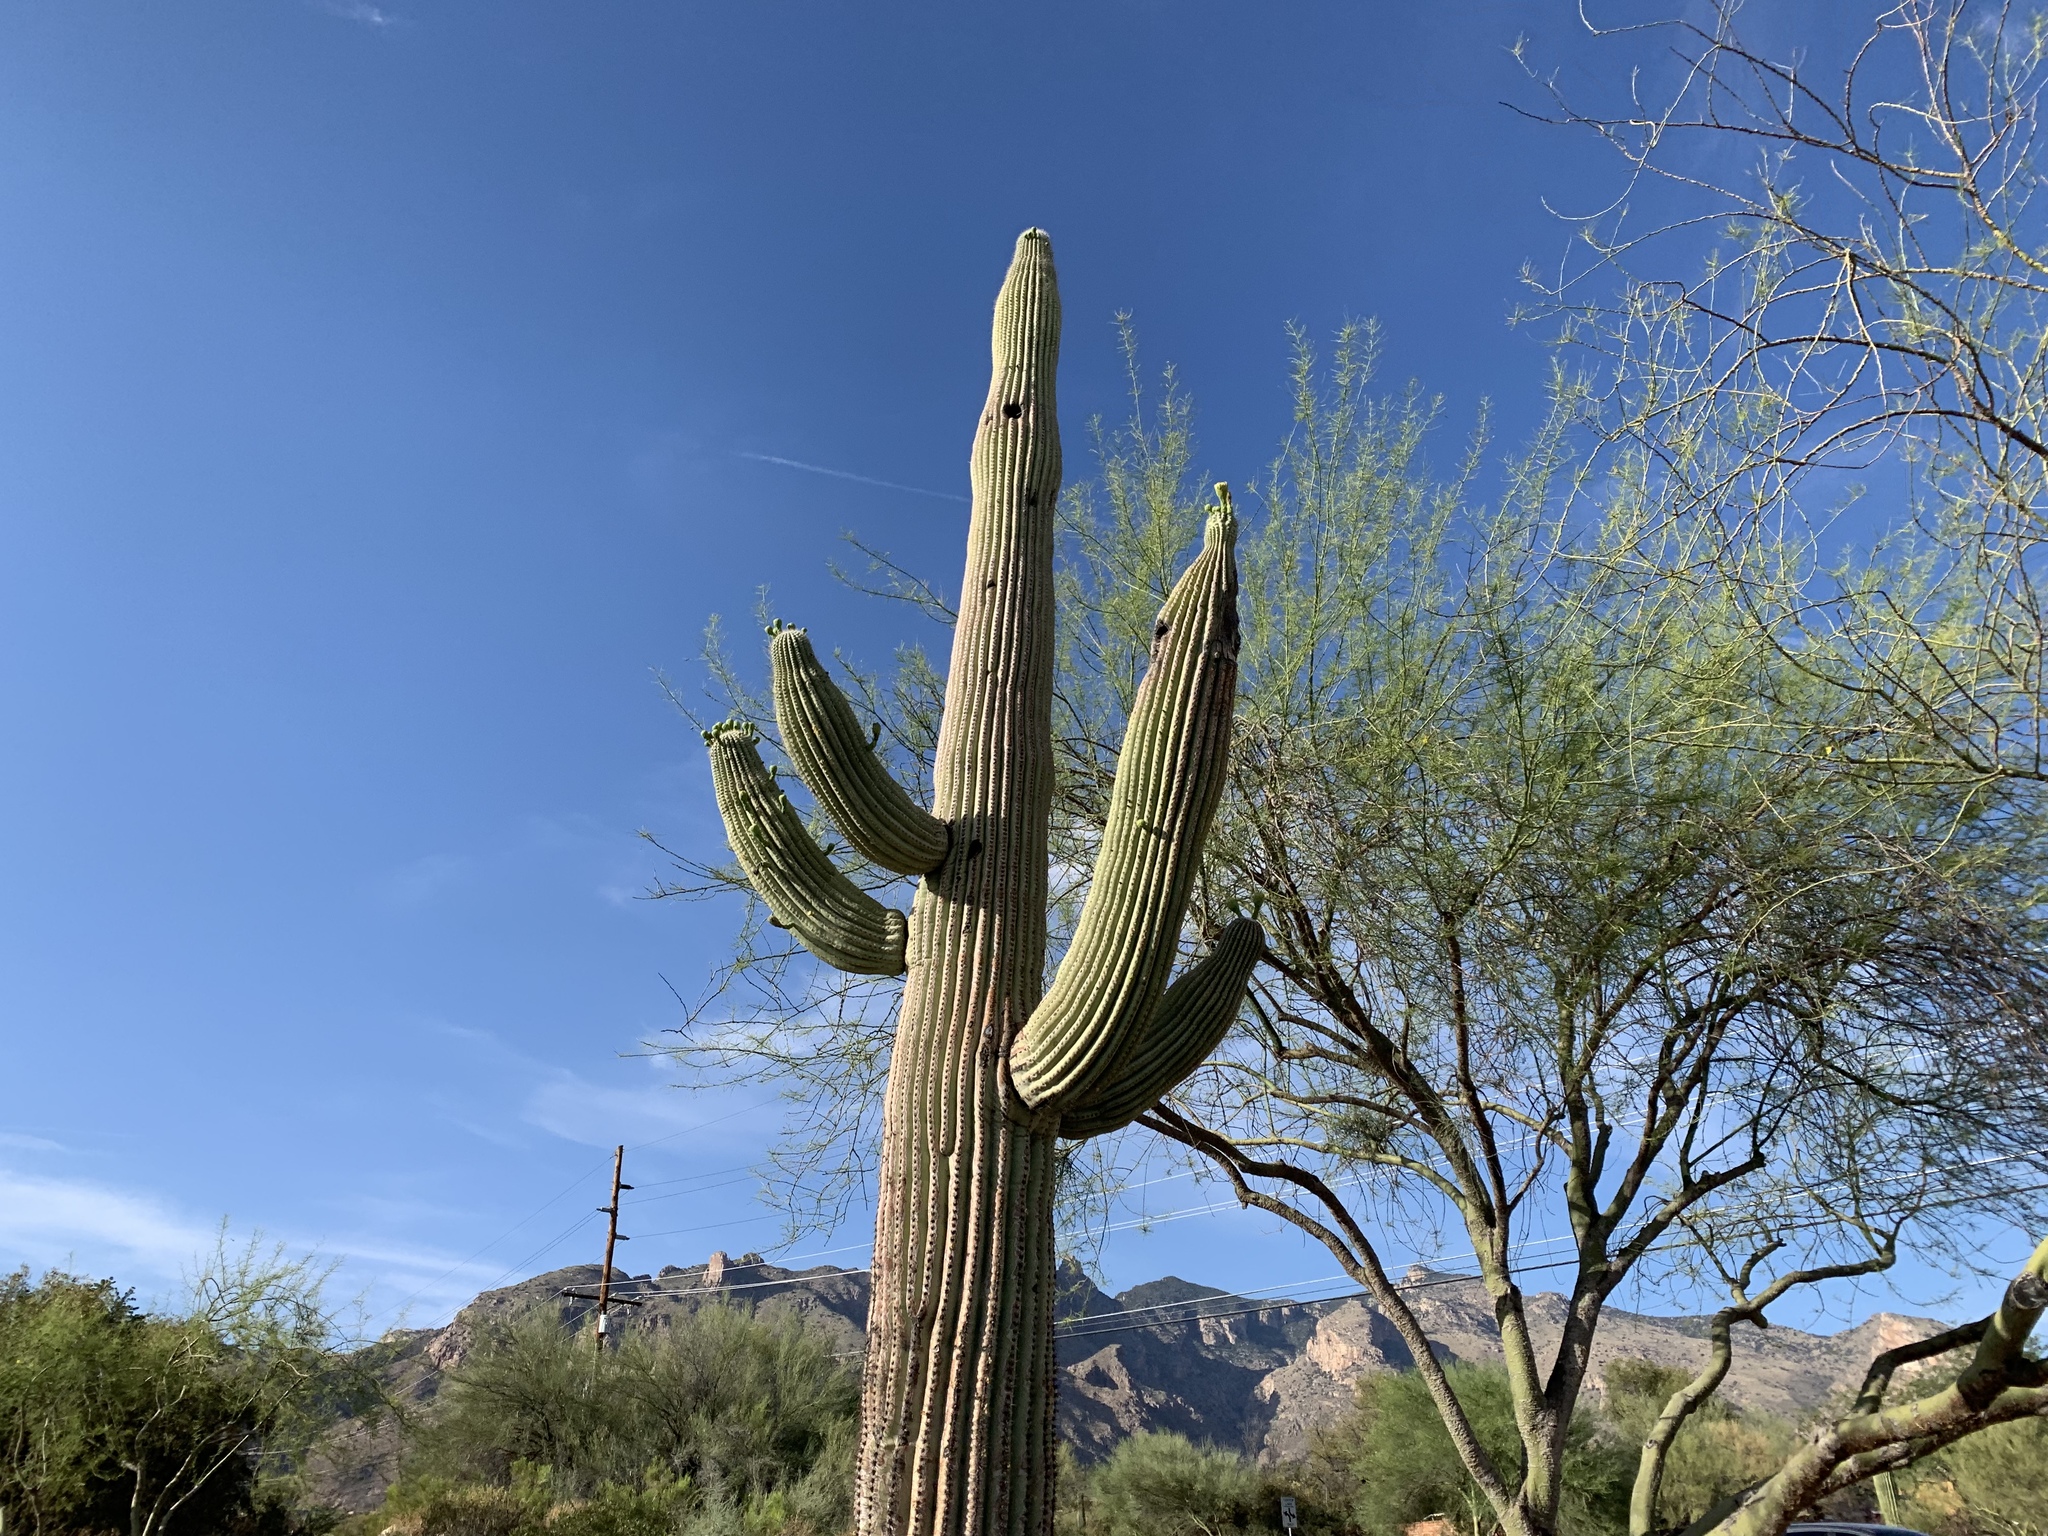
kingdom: Plantae
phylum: Tracheophyta
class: Magnoliopsida
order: Caryophyllales
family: Cactaceae
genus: Carnegiea
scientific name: Carnegiea gigantea
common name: Saguaro
